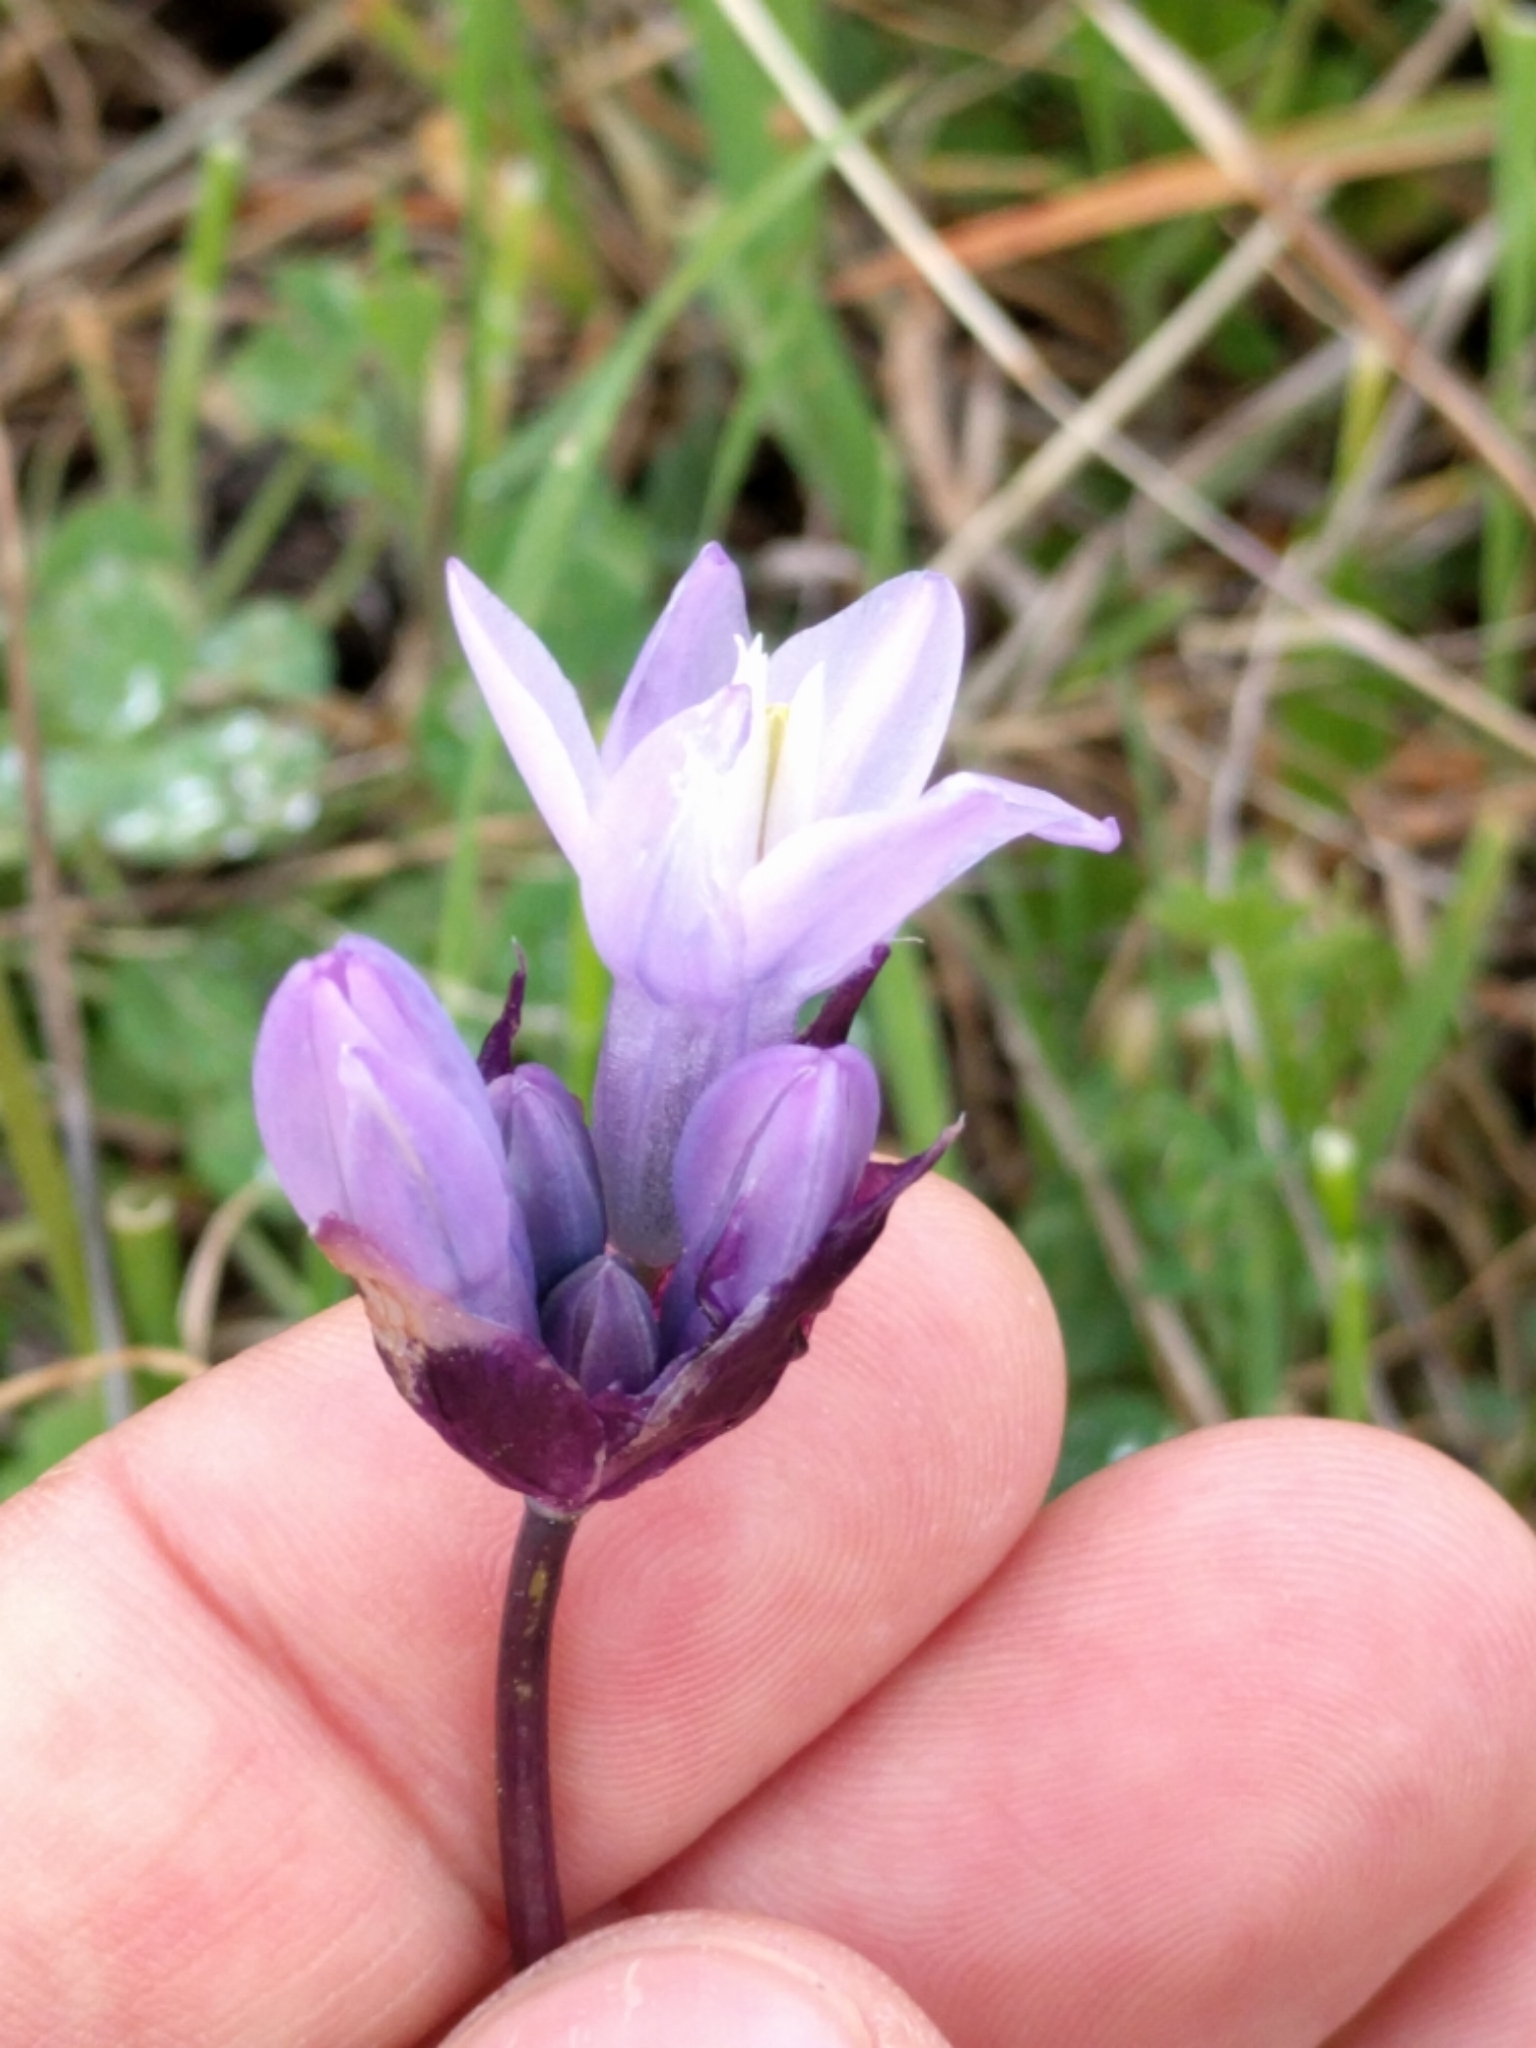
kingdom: Plantae
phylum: Tracheophyta
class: Liliopsida
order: Asparagales
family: Asparagaceae
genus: Dipterostemon
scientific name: Dipterostemon capitatus
